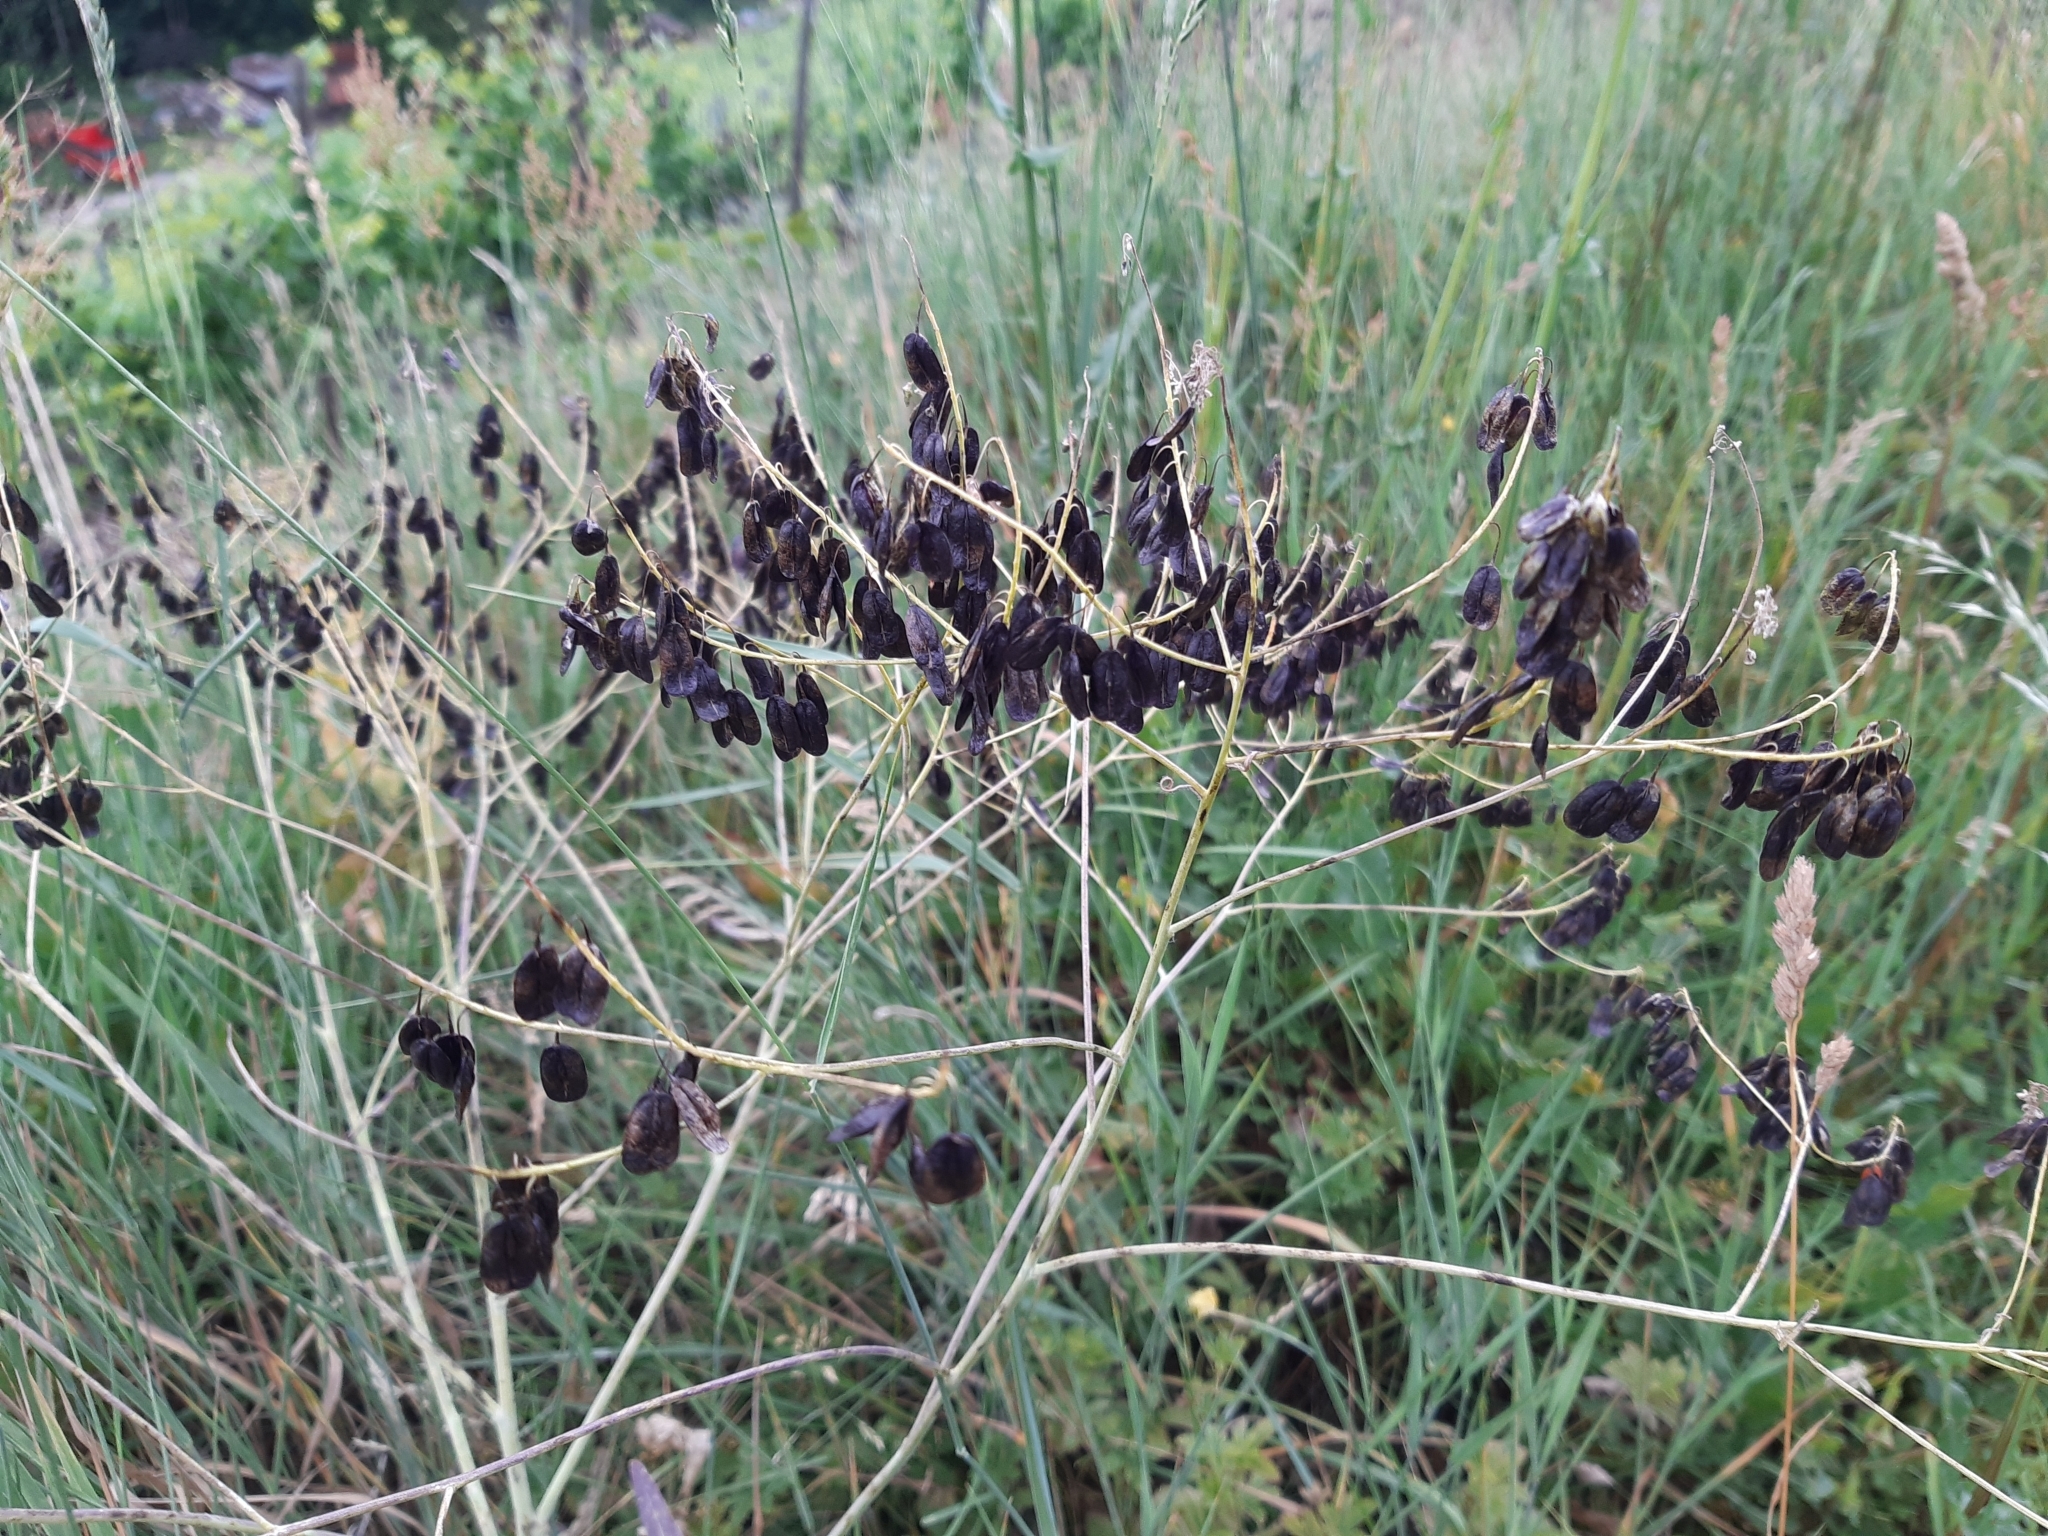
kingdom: Plantae
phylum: Tracheophyta
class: Magnoliopsida
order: Brassicales
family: Brassicaceae
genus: Isatis
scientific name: Isatis tinctoria
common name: Woad
